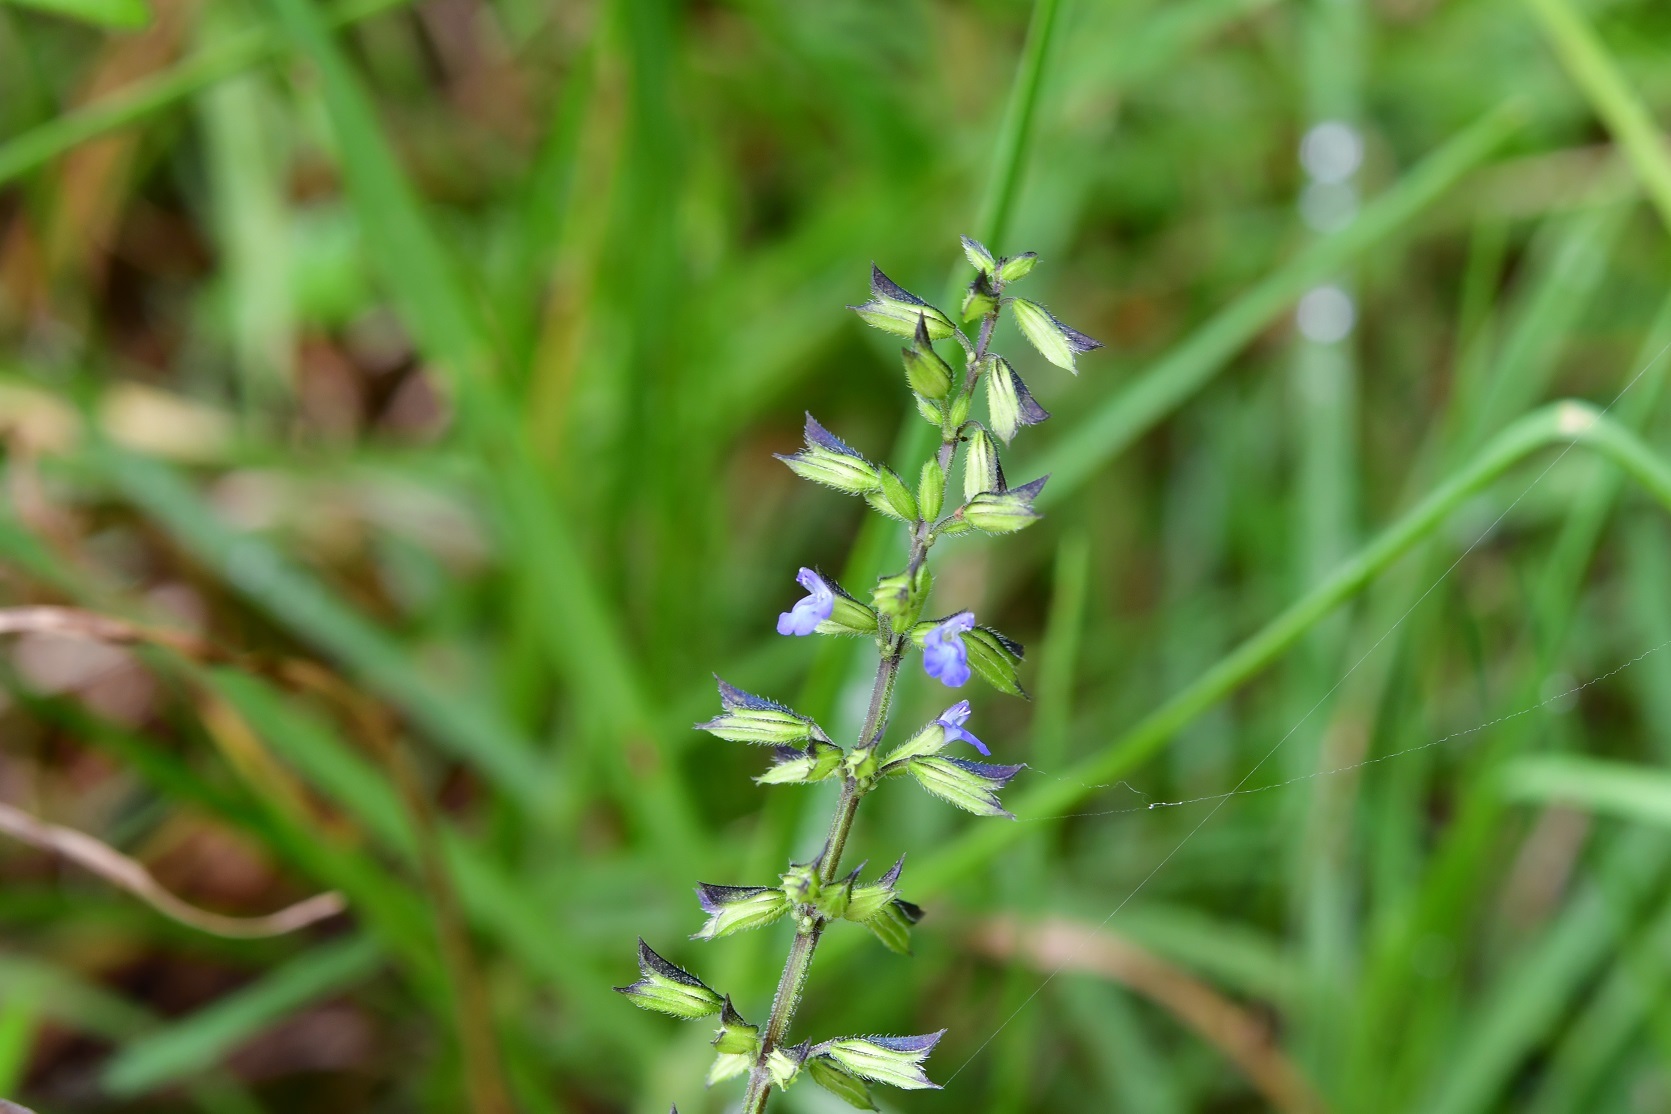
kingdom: Plantae
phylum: Tracheophyta
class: Magnoliopsida
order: Lamiales
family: Lamiaceae
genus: Salvia
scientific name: Salvia tiliifolia
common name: Lindenleaf sage
